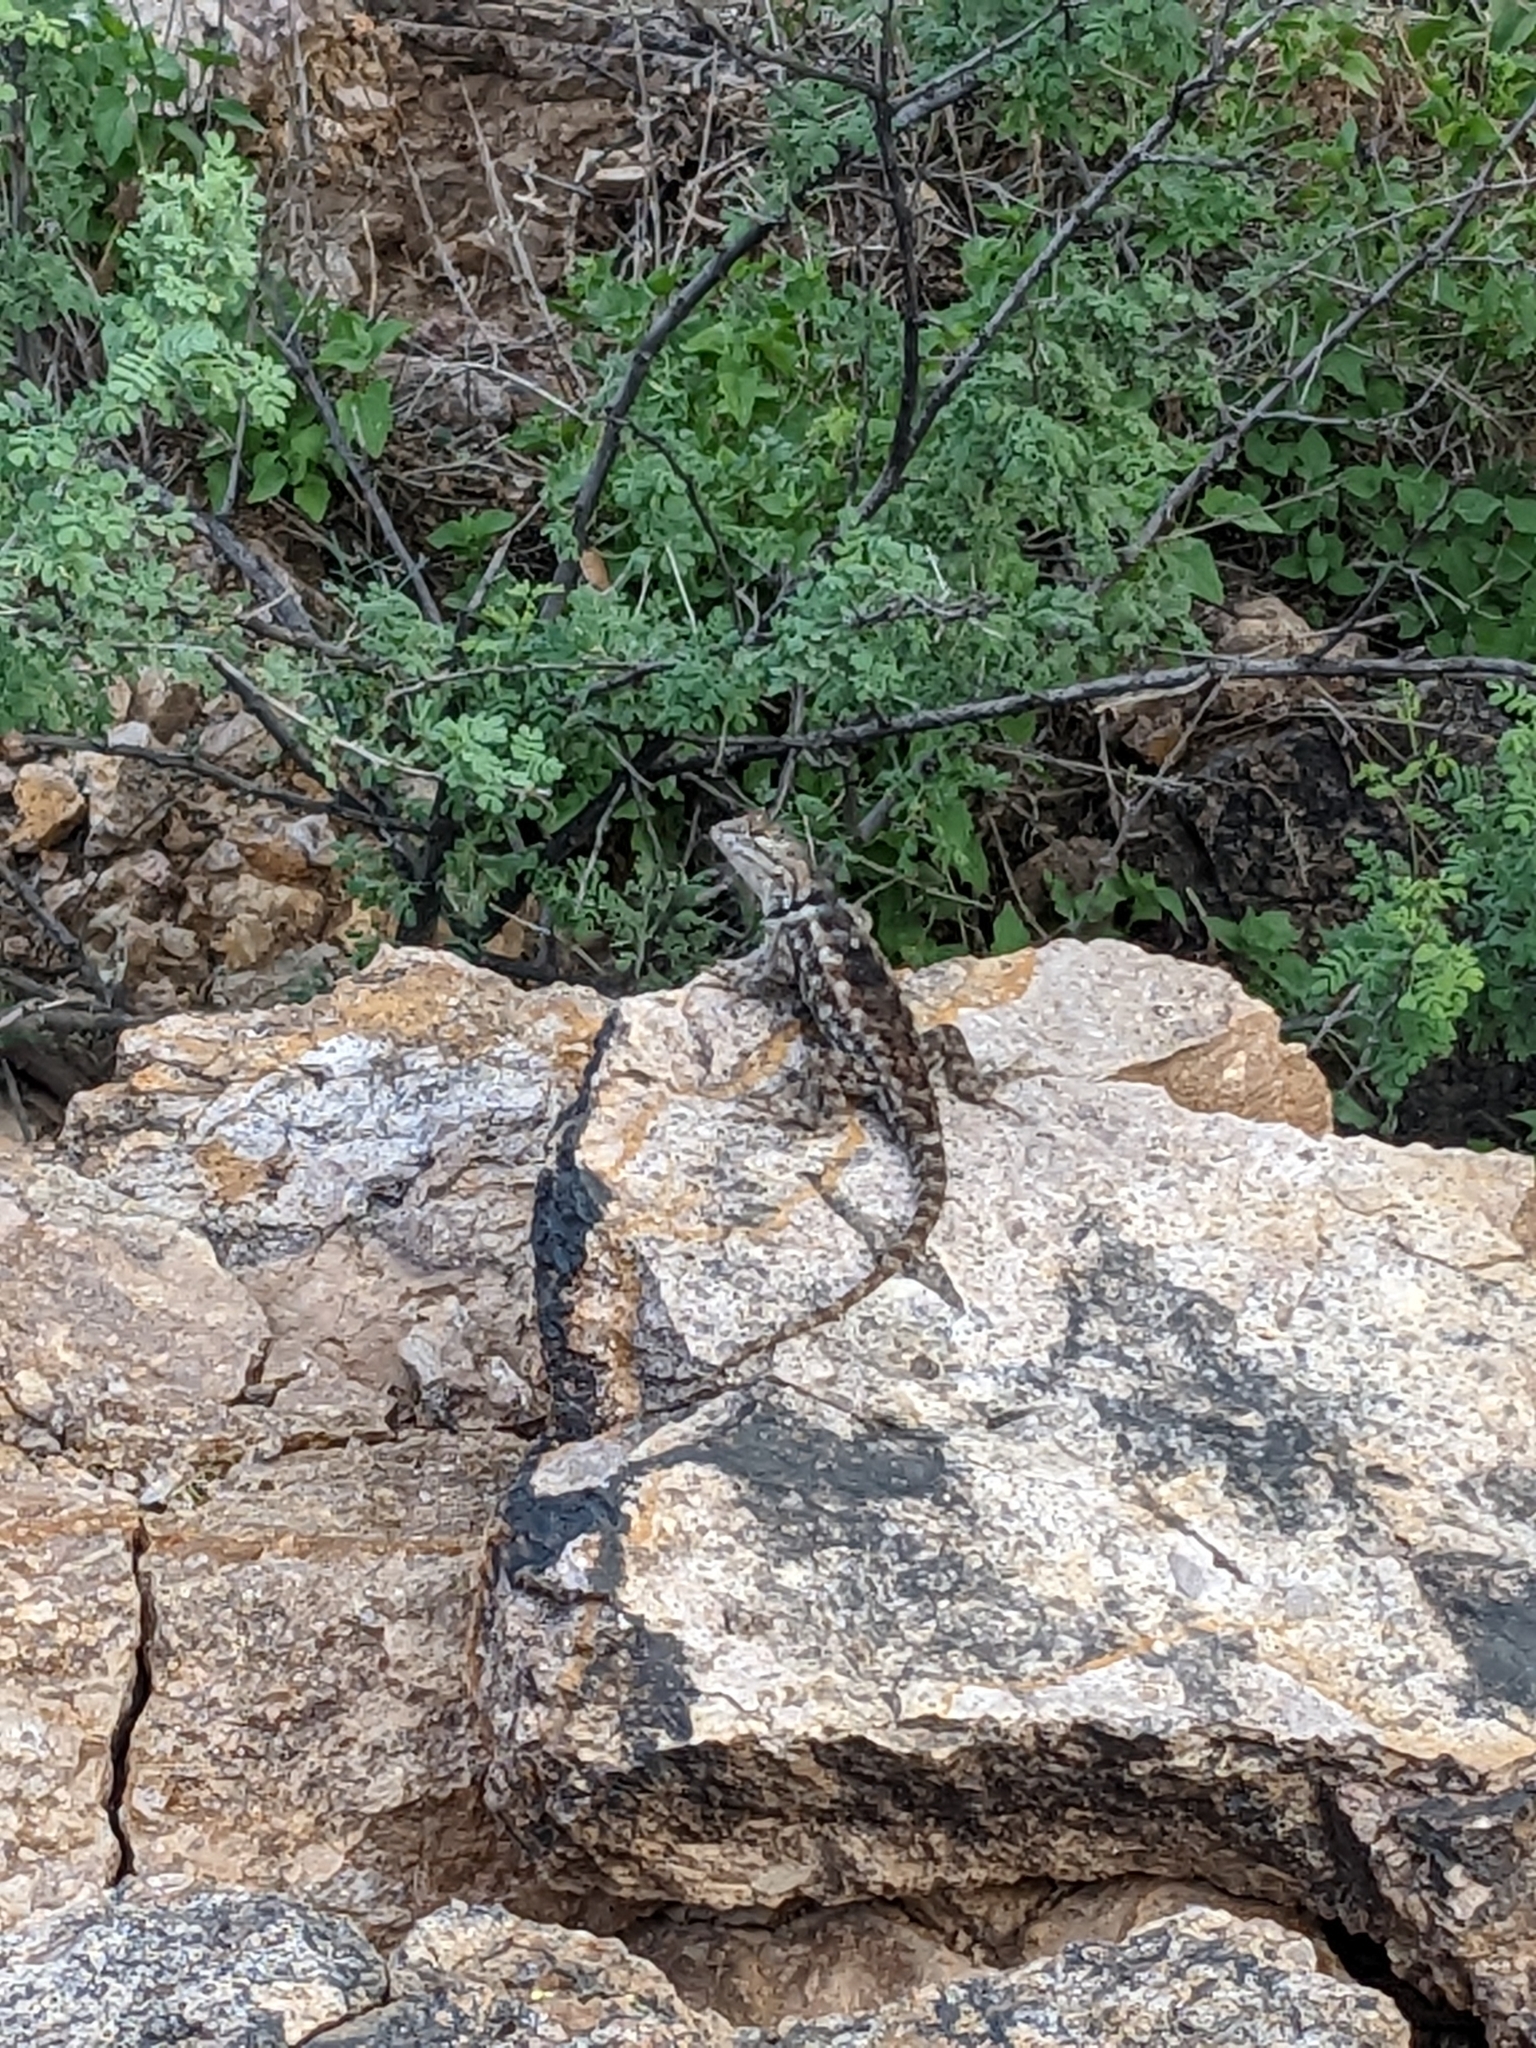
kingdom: Animalia
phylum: Chordata
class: Squamata
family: Phrynosomatidae
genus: Sceloporus
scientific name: Sceloporus magister
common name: Desert spiny lizard
